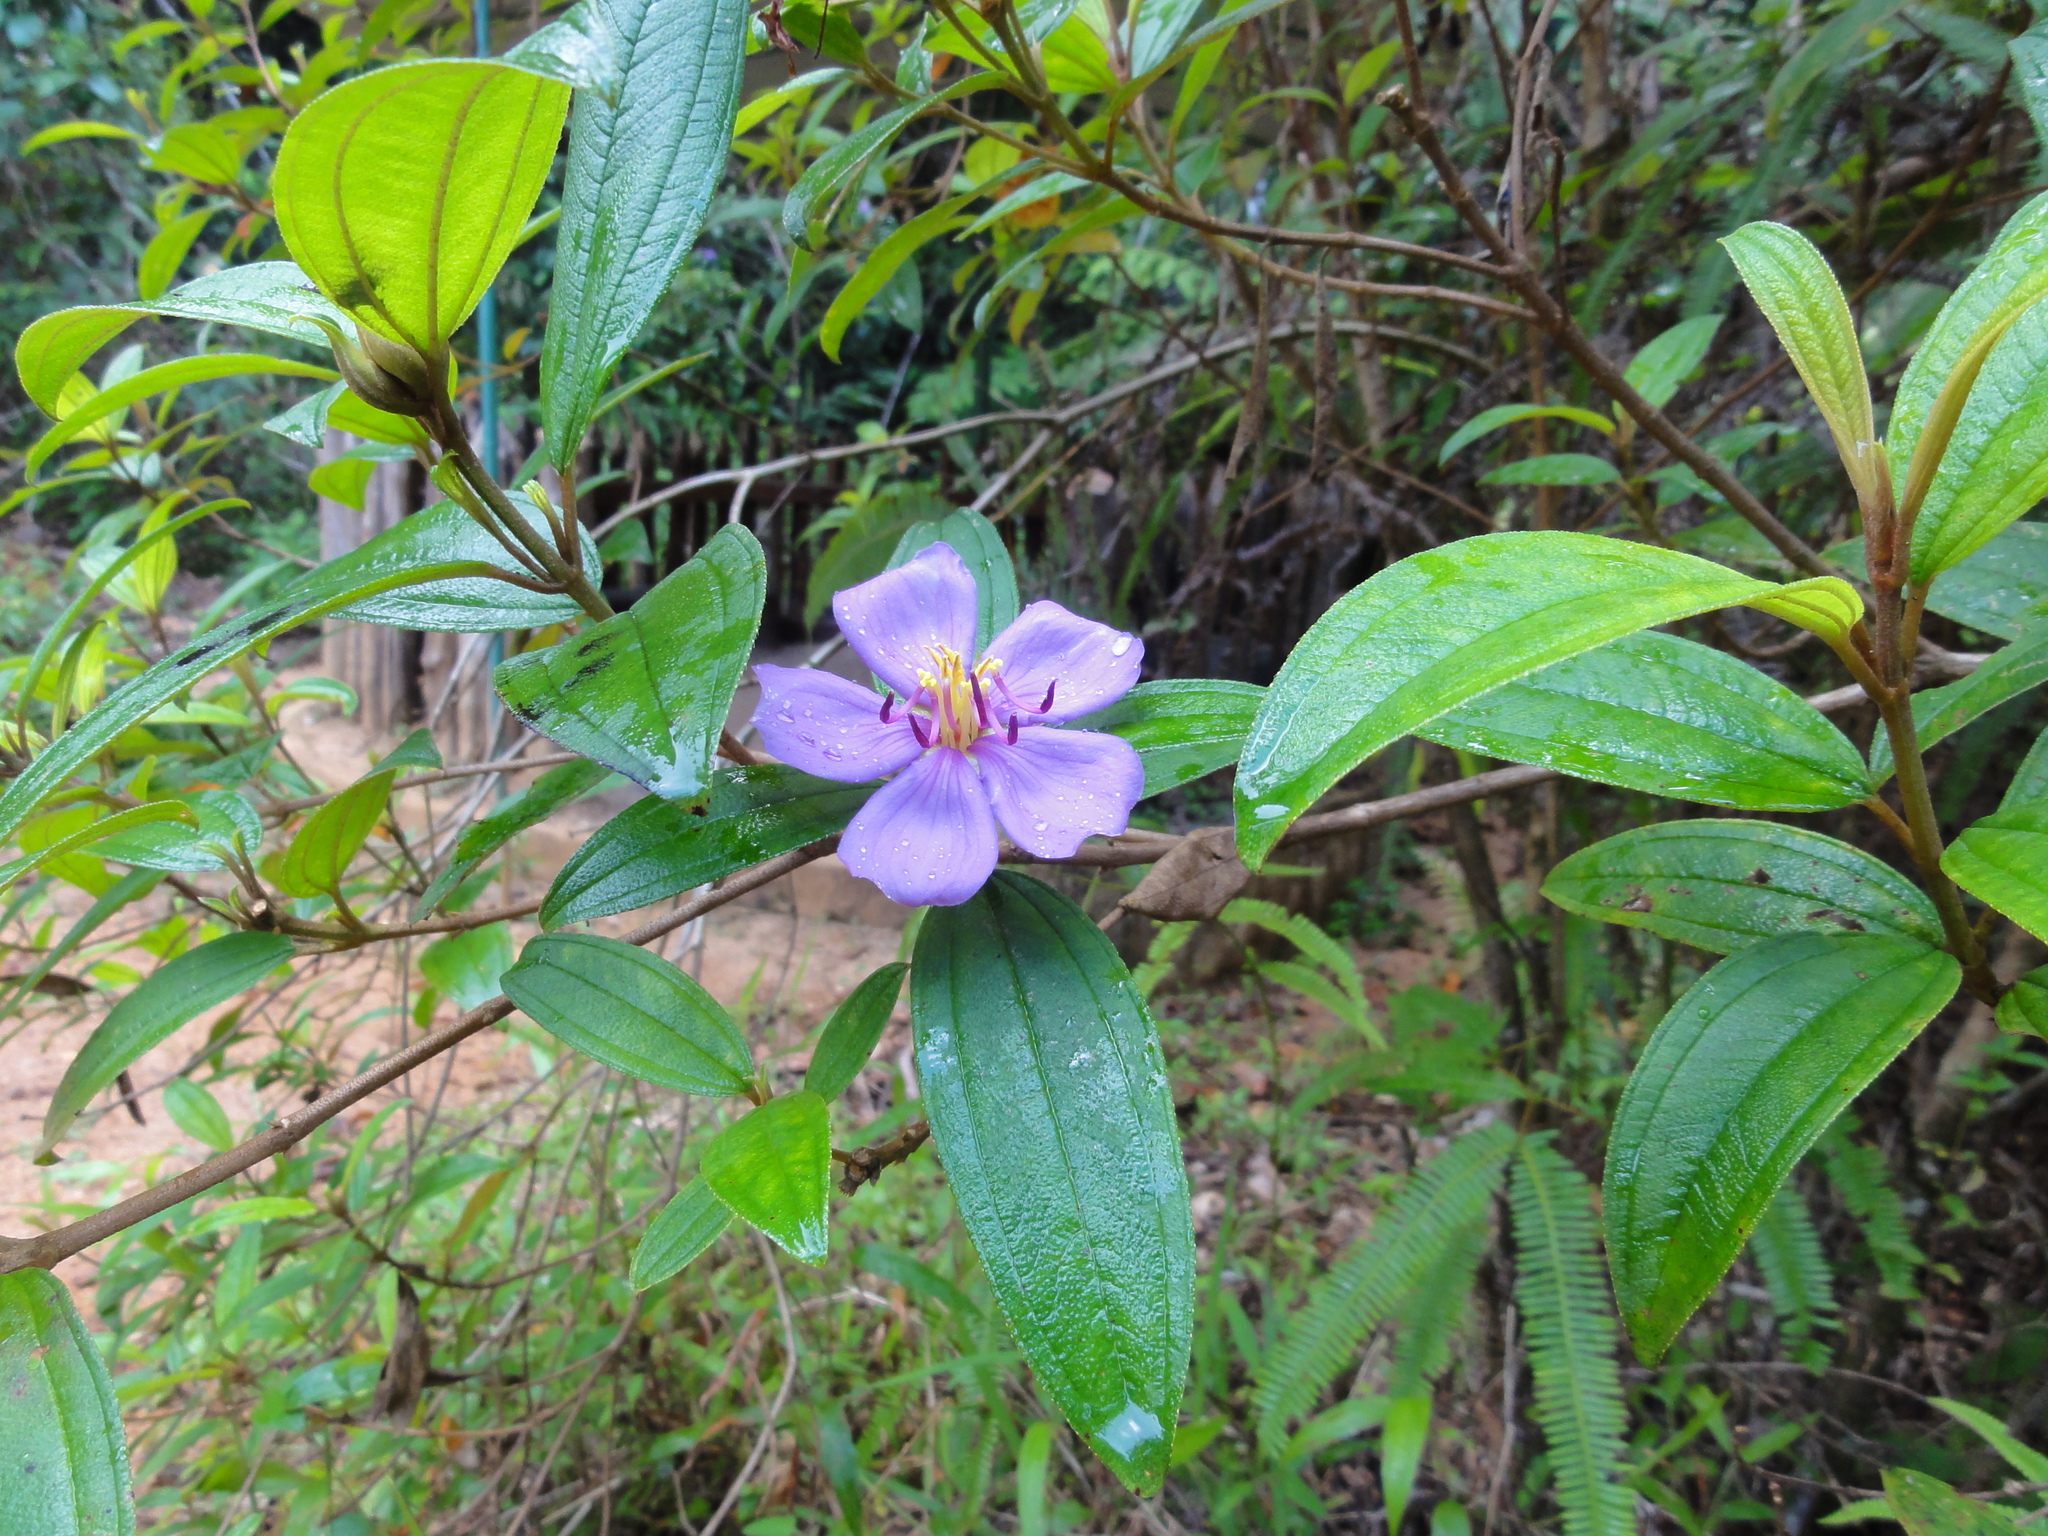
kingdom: Plantae
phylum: Tracheophyta
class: Magnoliopsida
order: Myrtales
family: Melastomataceae
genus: Melastoma
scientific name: Melastoma malabathricum
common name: Indian-rhododendron
